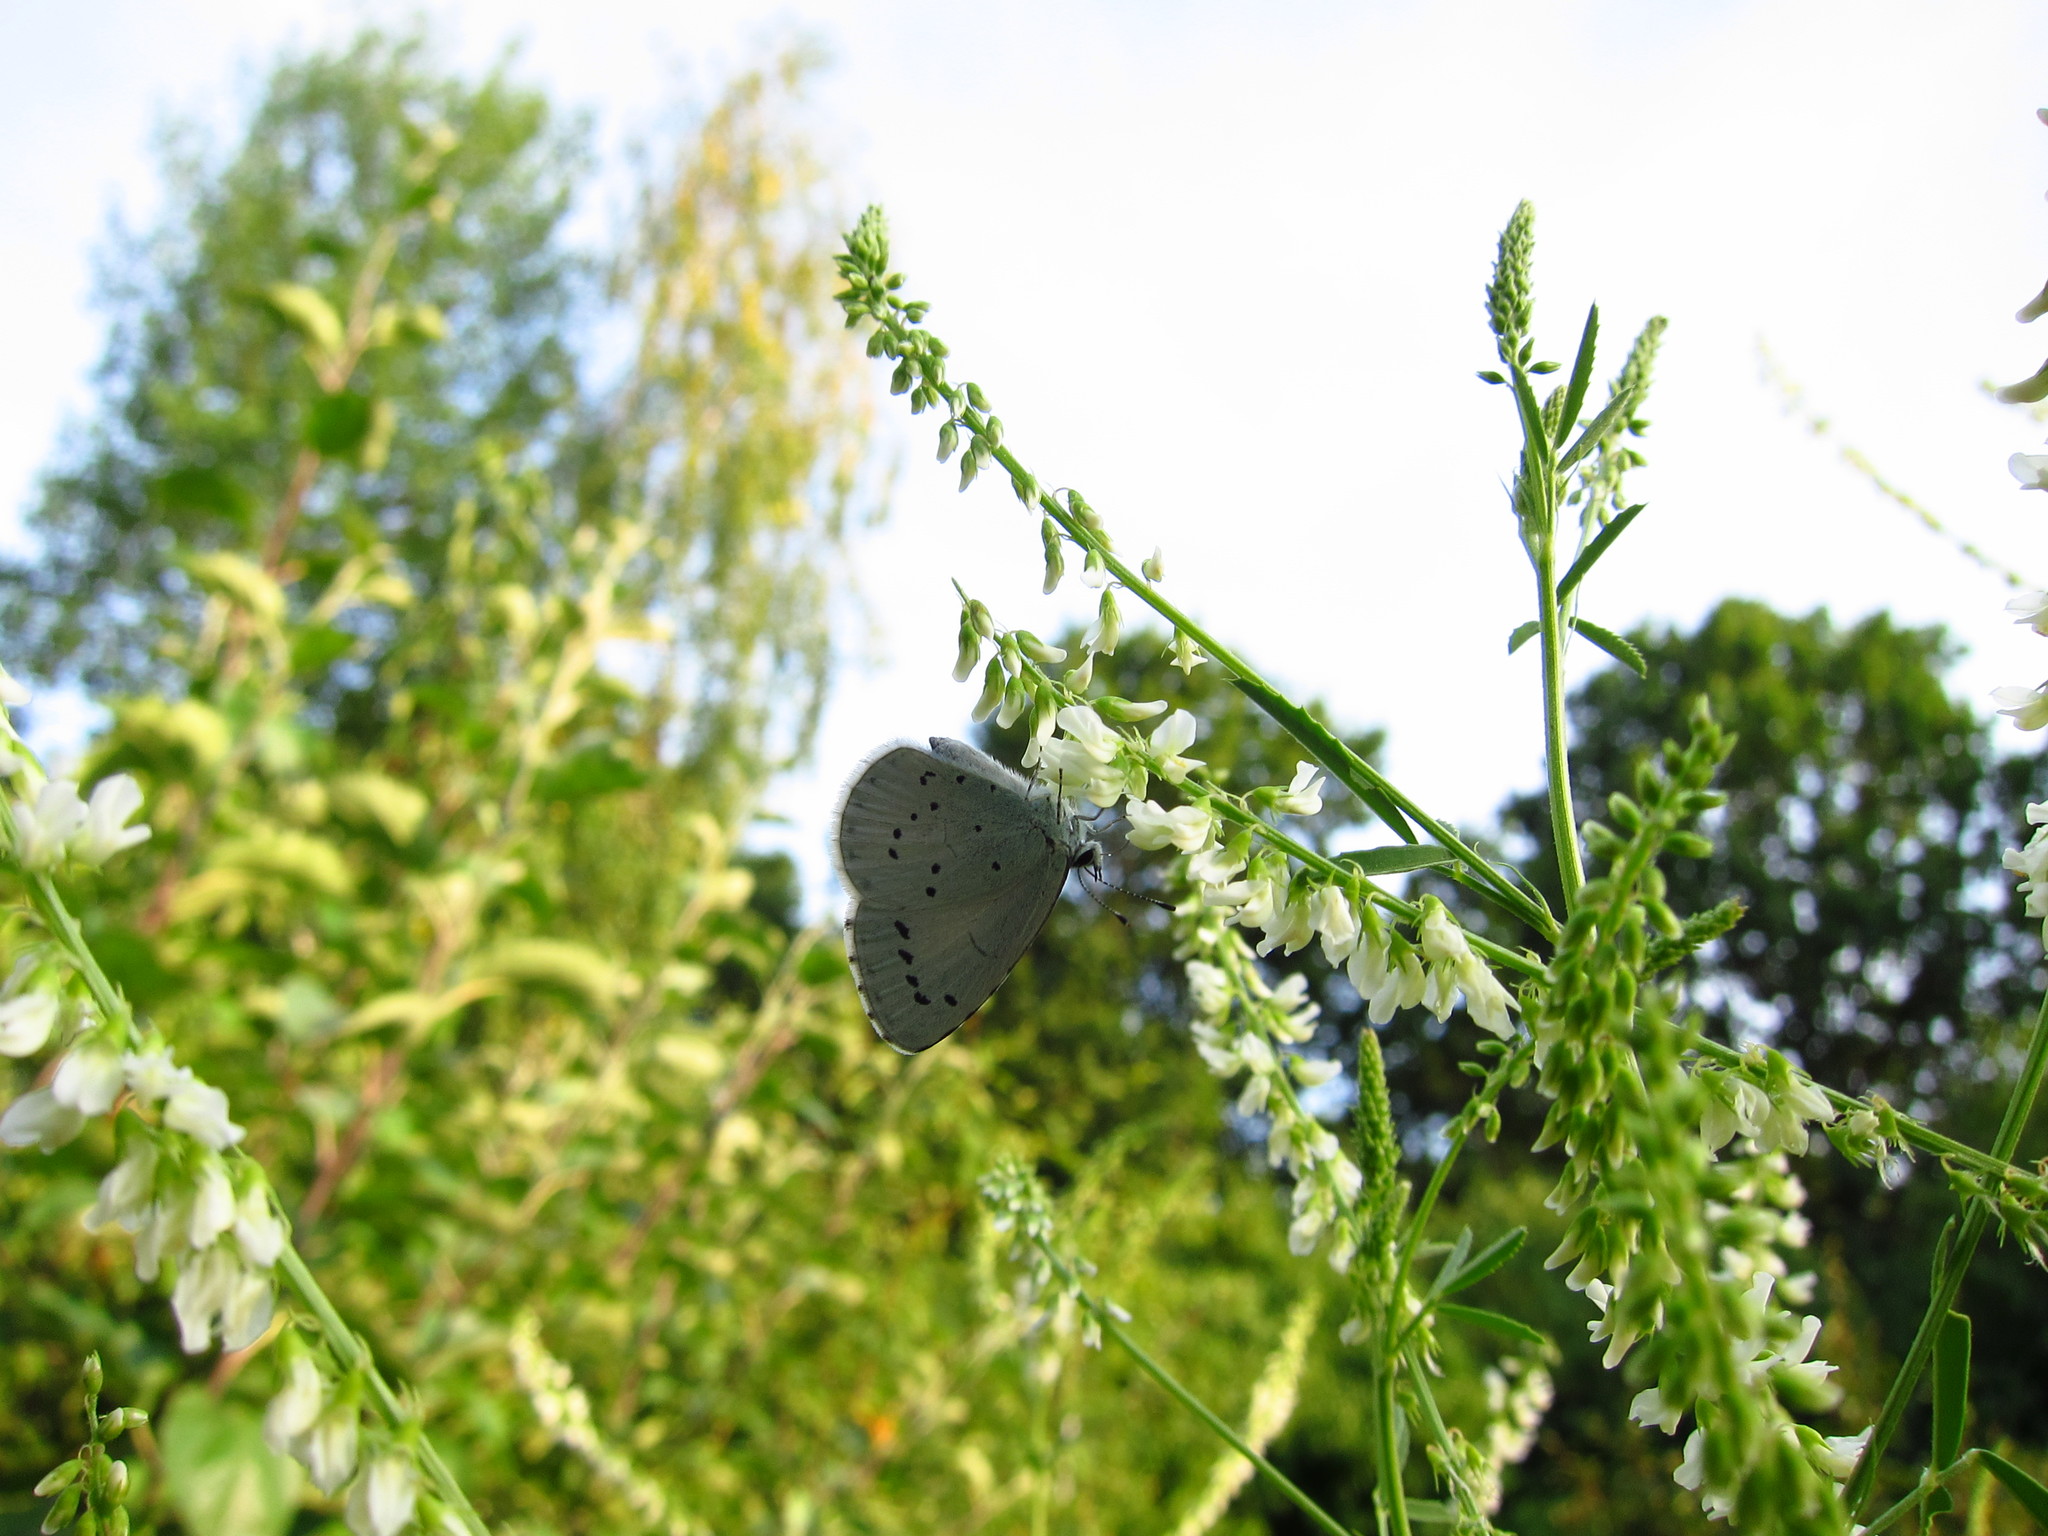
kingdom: Animalia
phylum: Arthropoda
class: Insecta
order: Lepidoptera
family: Lycaenidae
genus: Celastrina
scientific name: Celastrina argiolus
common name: Holly blue
